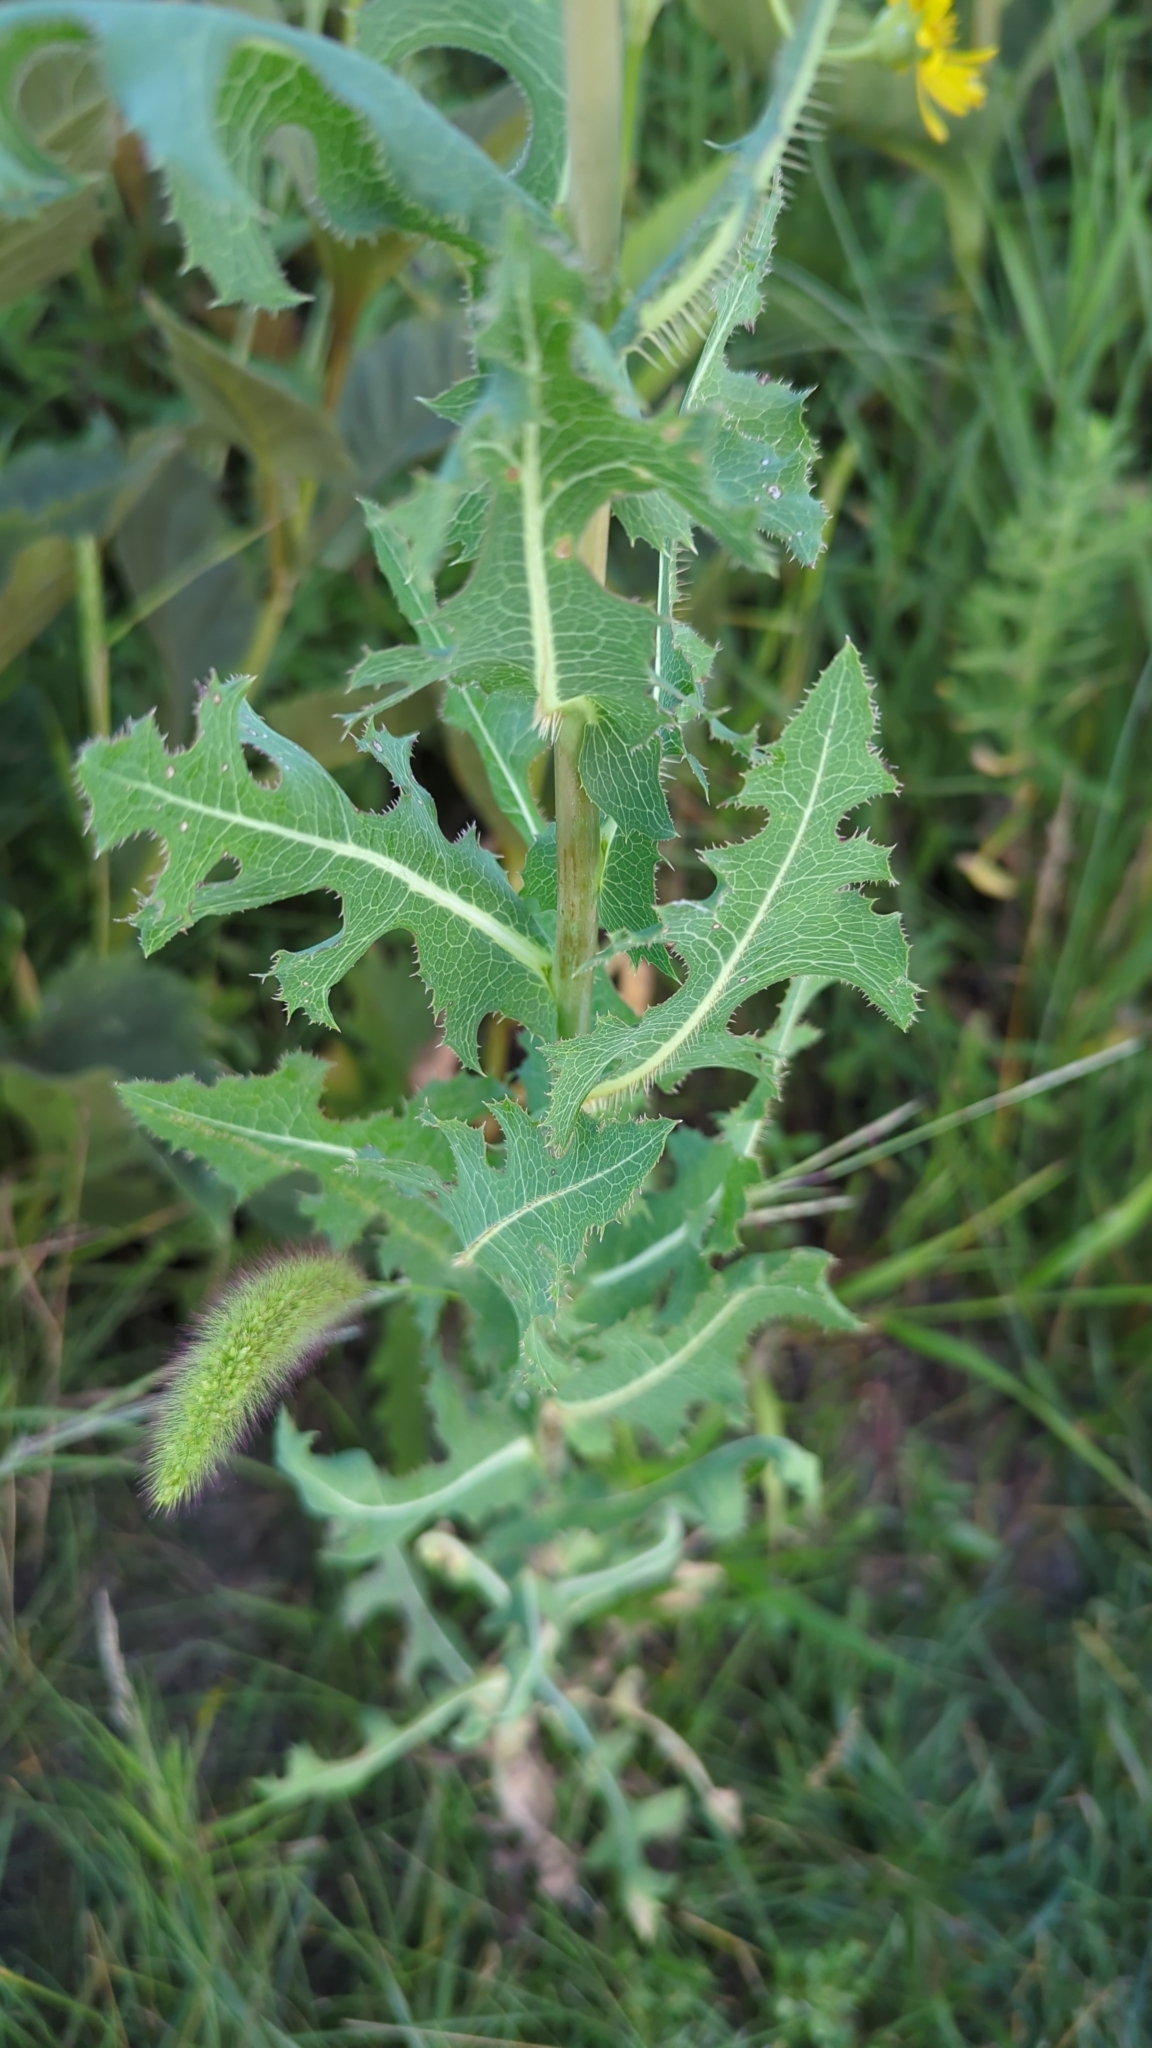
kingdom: Plantae
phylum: Tracheophyta
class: Magnoliopsida
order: Asterales
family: Asteraceae
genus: Lactuca
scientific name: Lactuca serriola
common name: Prickly lettuce
